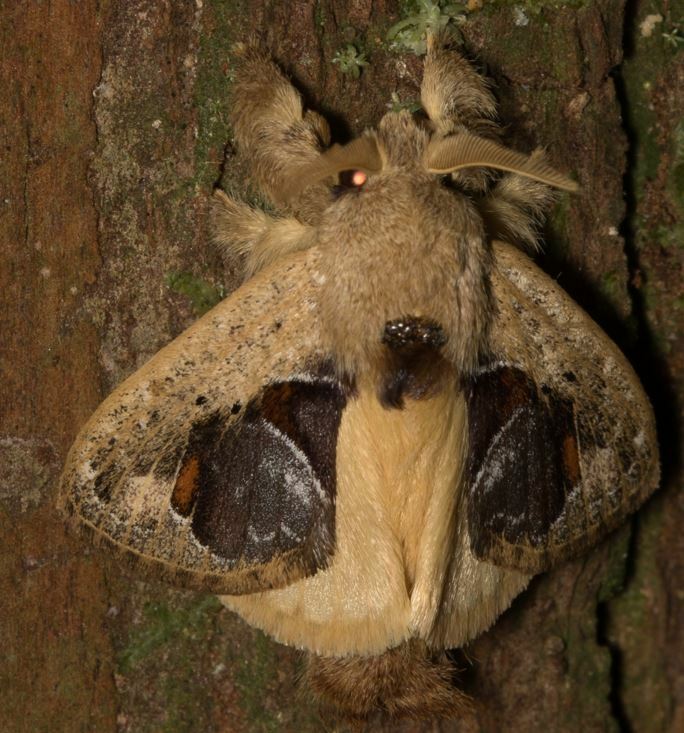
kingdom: Animalia
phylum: Arthropoda
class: Insecta
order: Lepidoptera
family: Lasiocampidae
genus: Nesara
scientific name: Nesara
